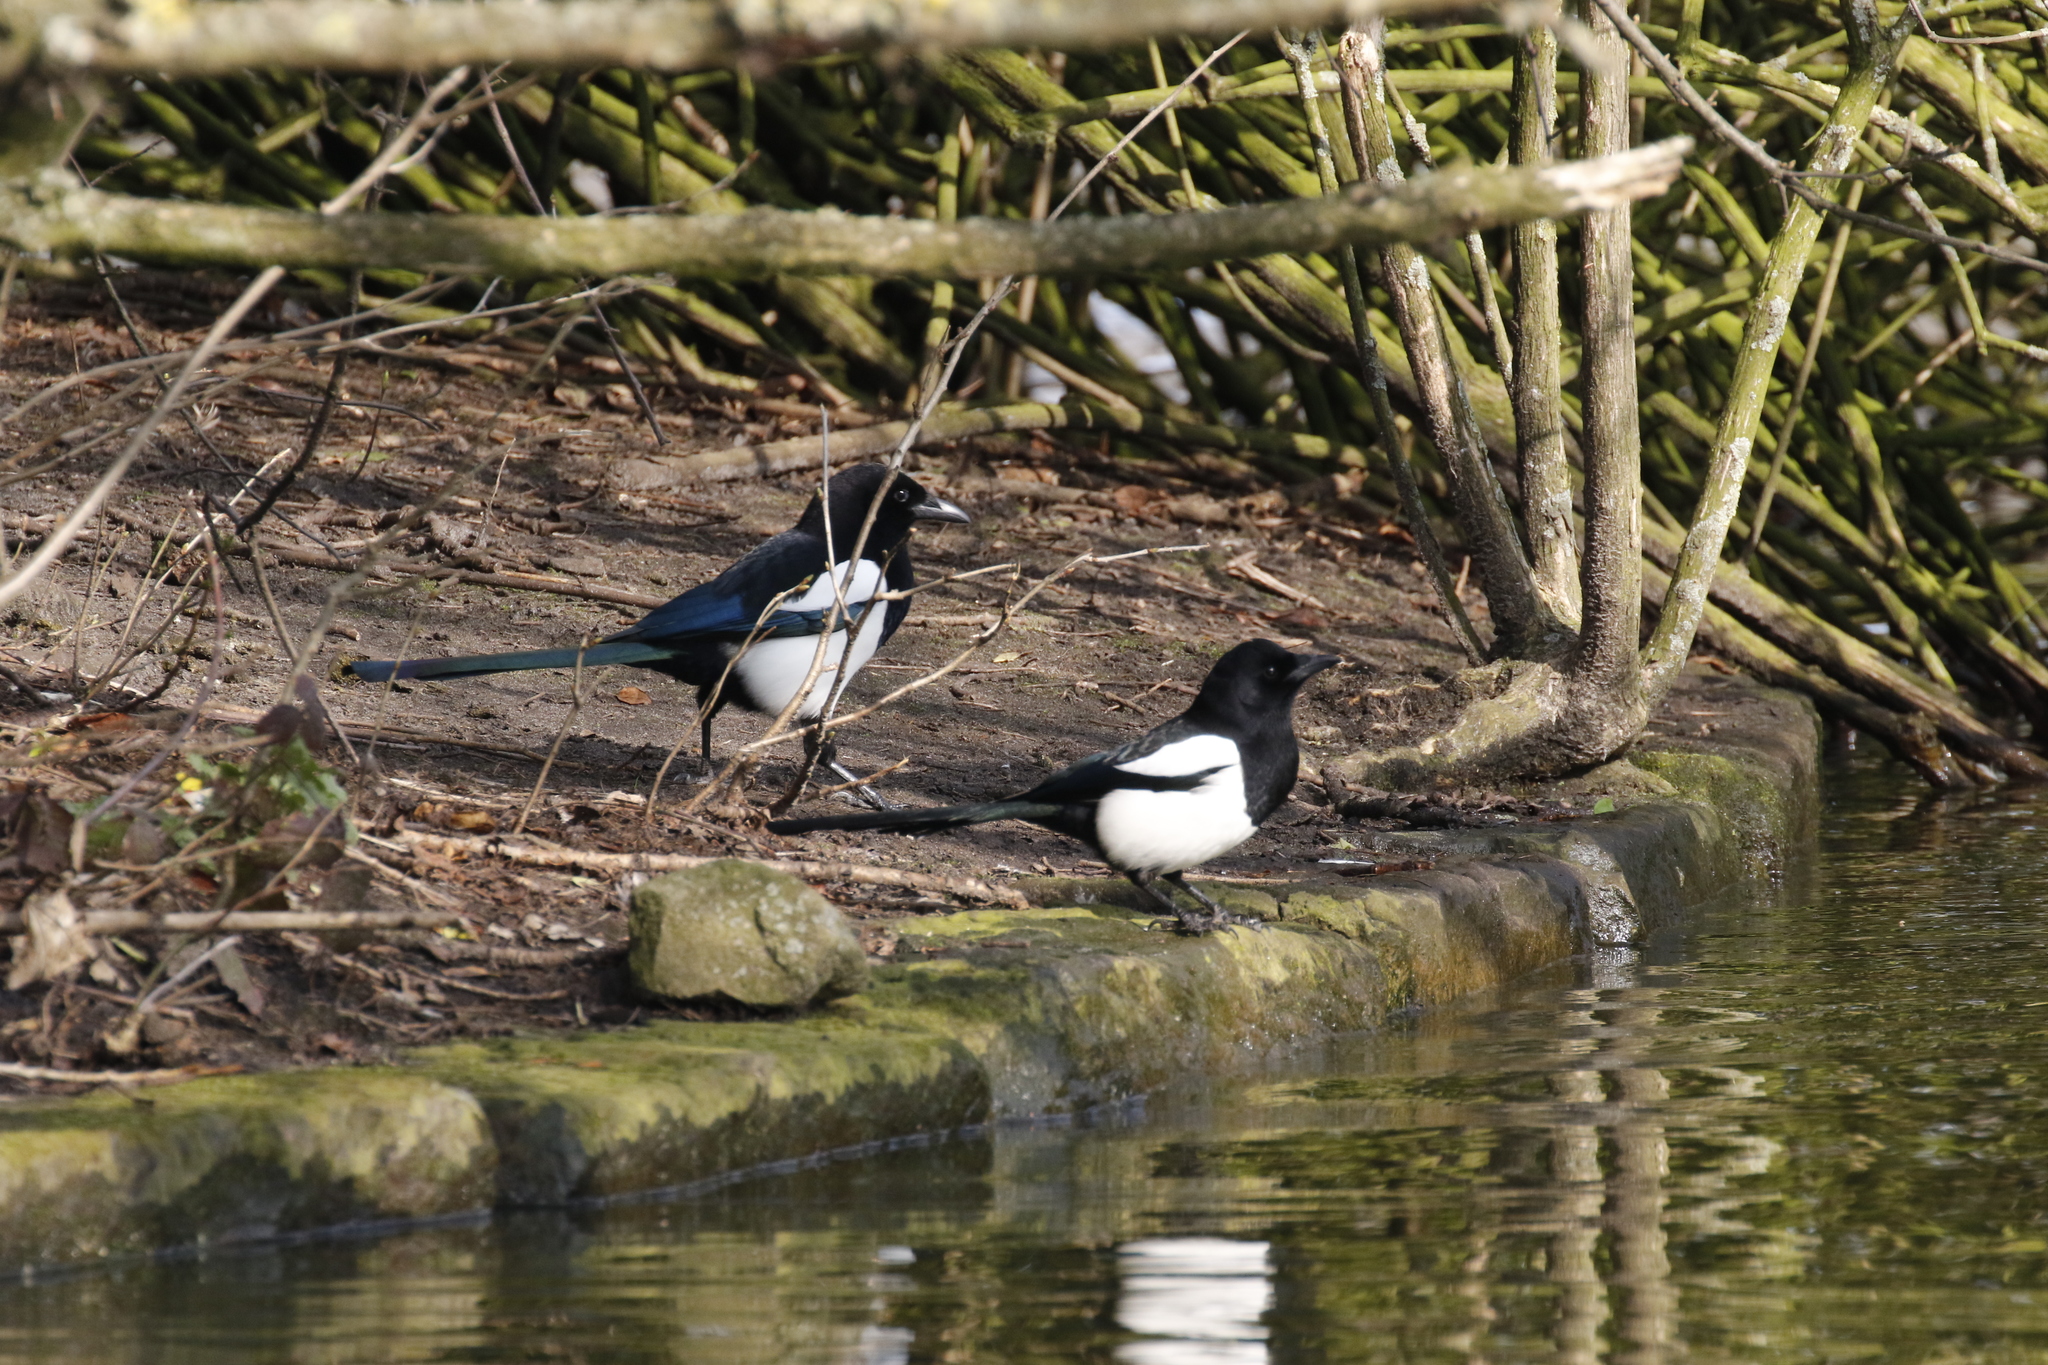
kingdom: Animalia
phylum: Chordata
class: Aves
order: Passeriformes
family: Corvidae
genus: Pica
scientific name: Pica pica
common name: Eurasian magpie
